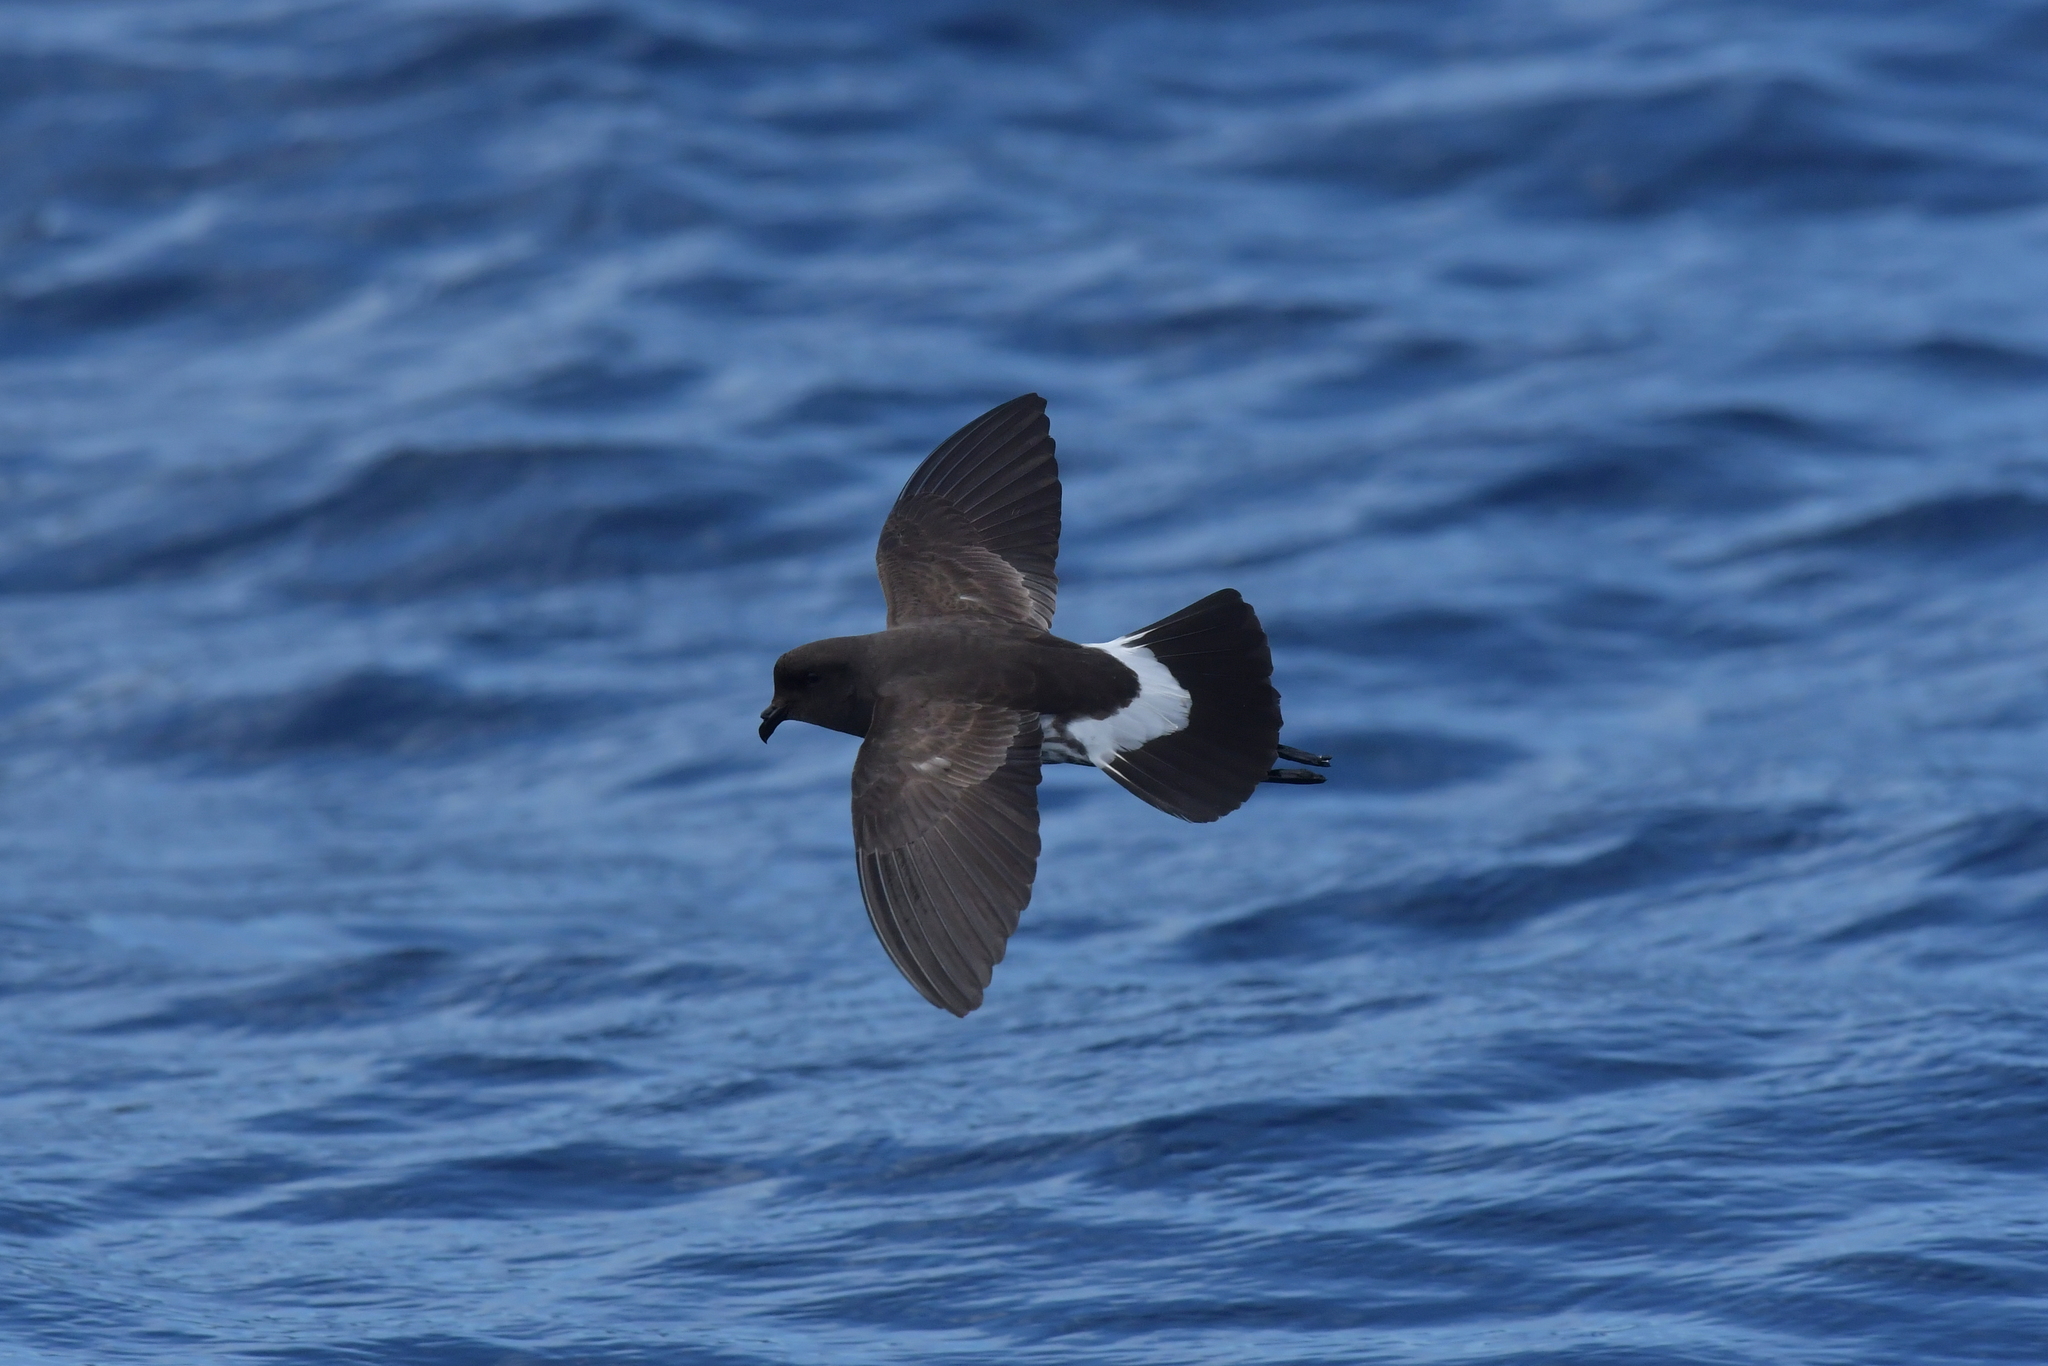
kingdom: Animalia
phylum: Chordata
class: Aves
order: Procellariiformes
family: Hydrobatidae
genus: Oceanites
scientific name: Oceanites maorianus
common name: New zealand storm petrel
